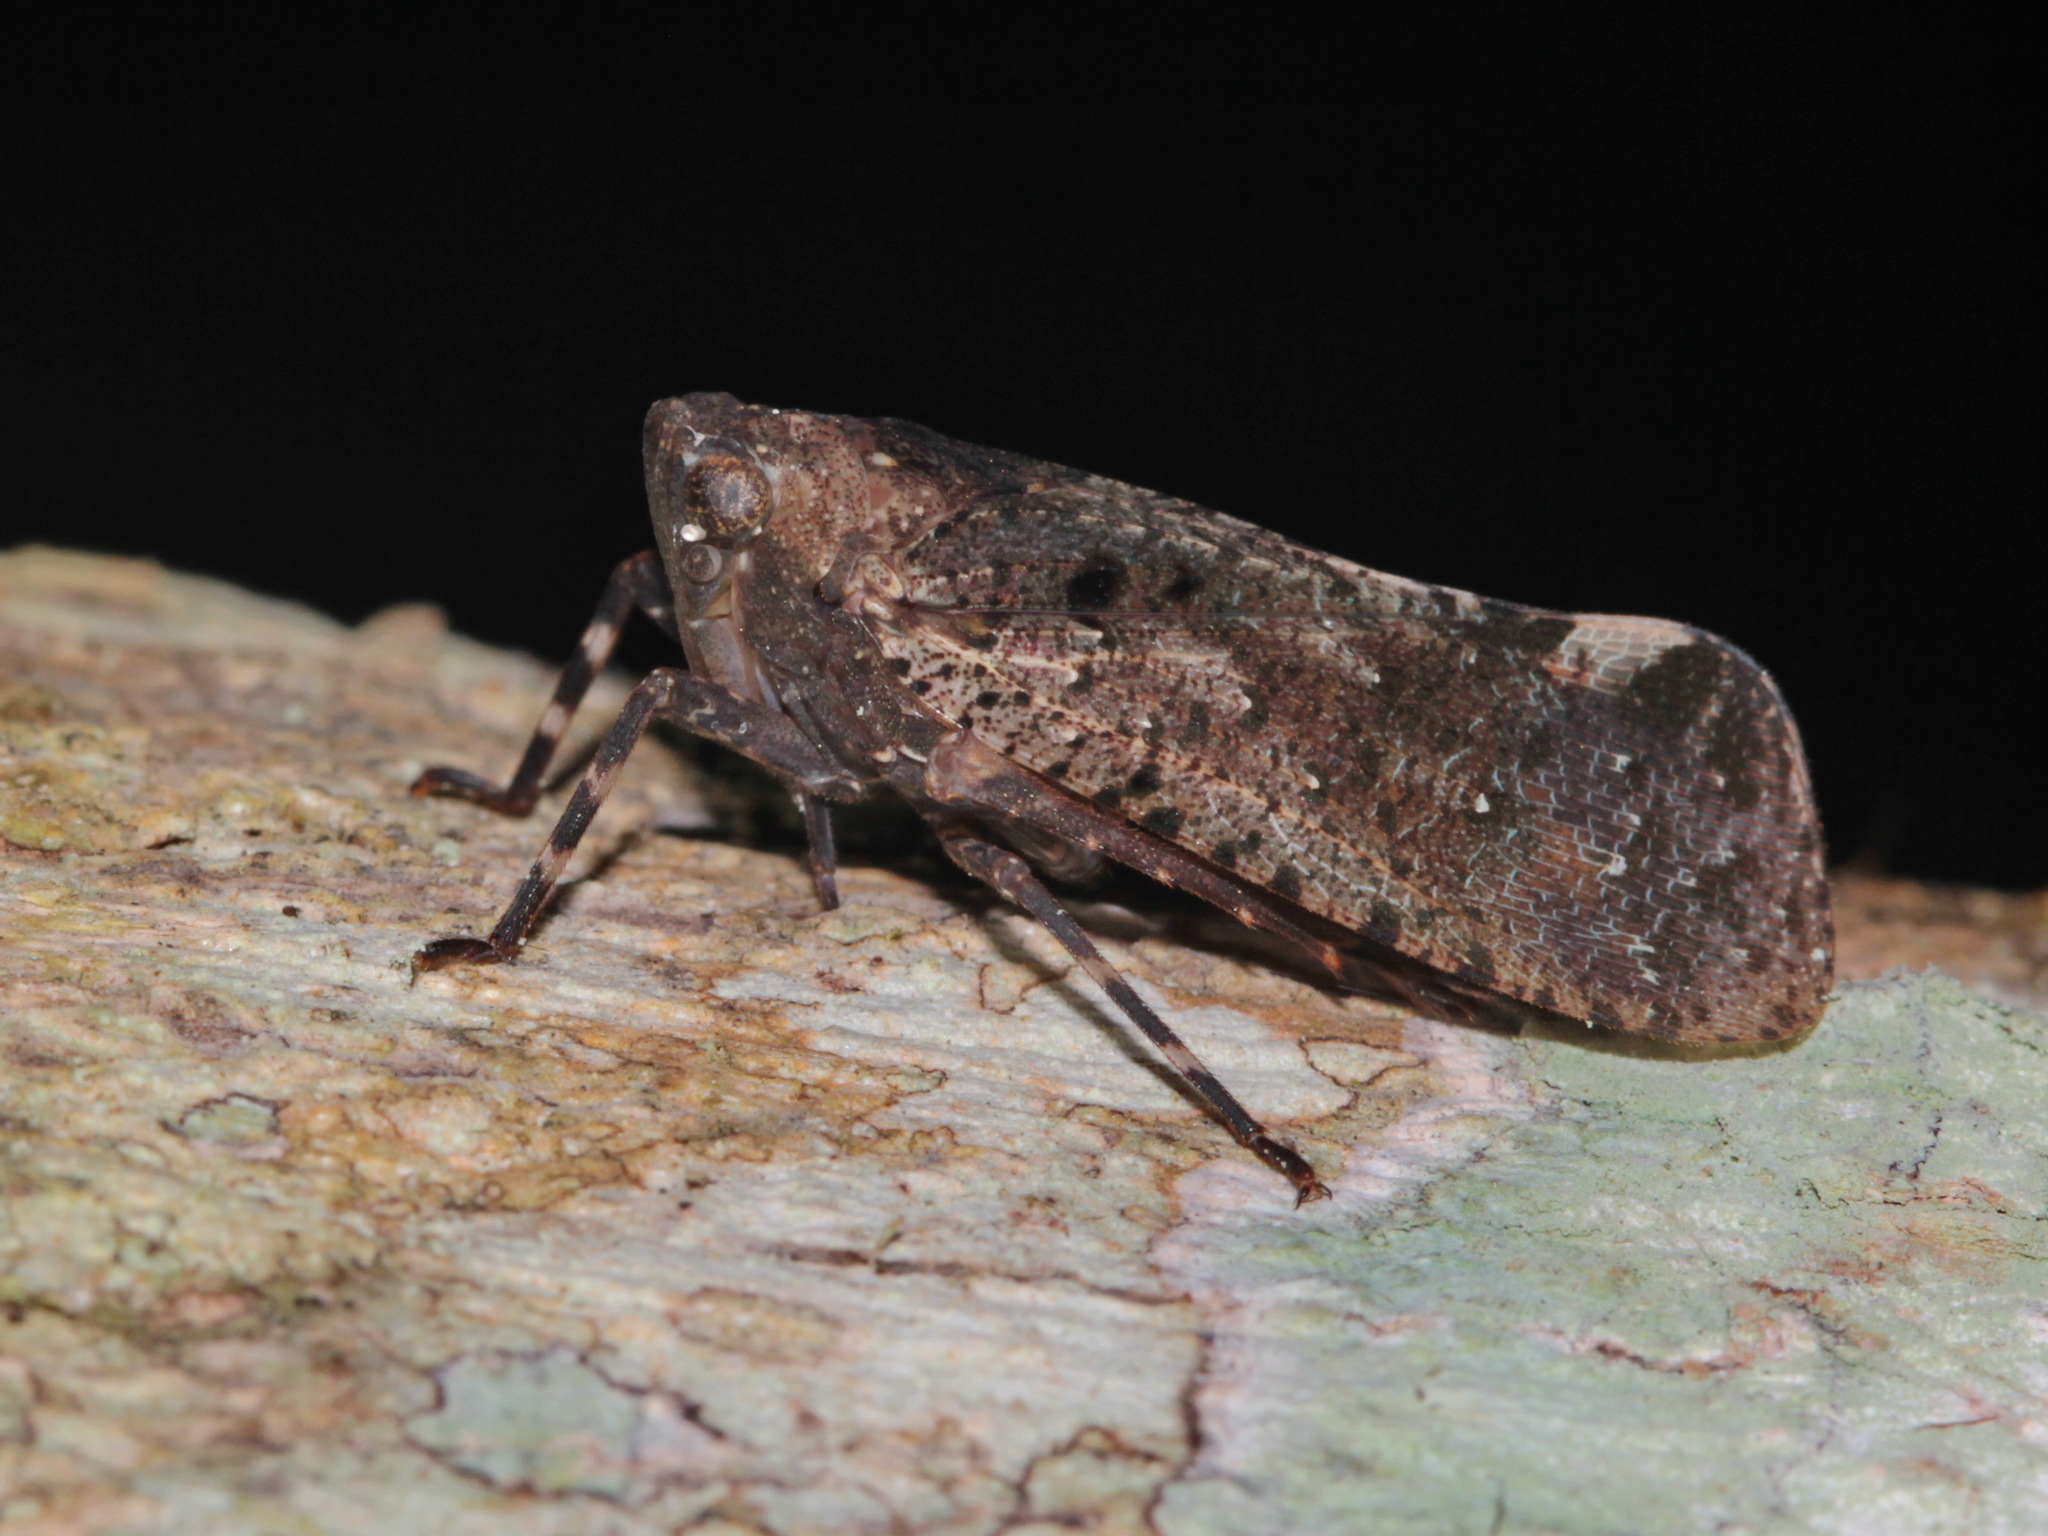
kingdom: Animalia
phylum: Arthropoda
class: Insecta
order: Hemiptera
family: Fulgoridae
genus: Penthicodes
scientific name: Penthicodes pulchella
